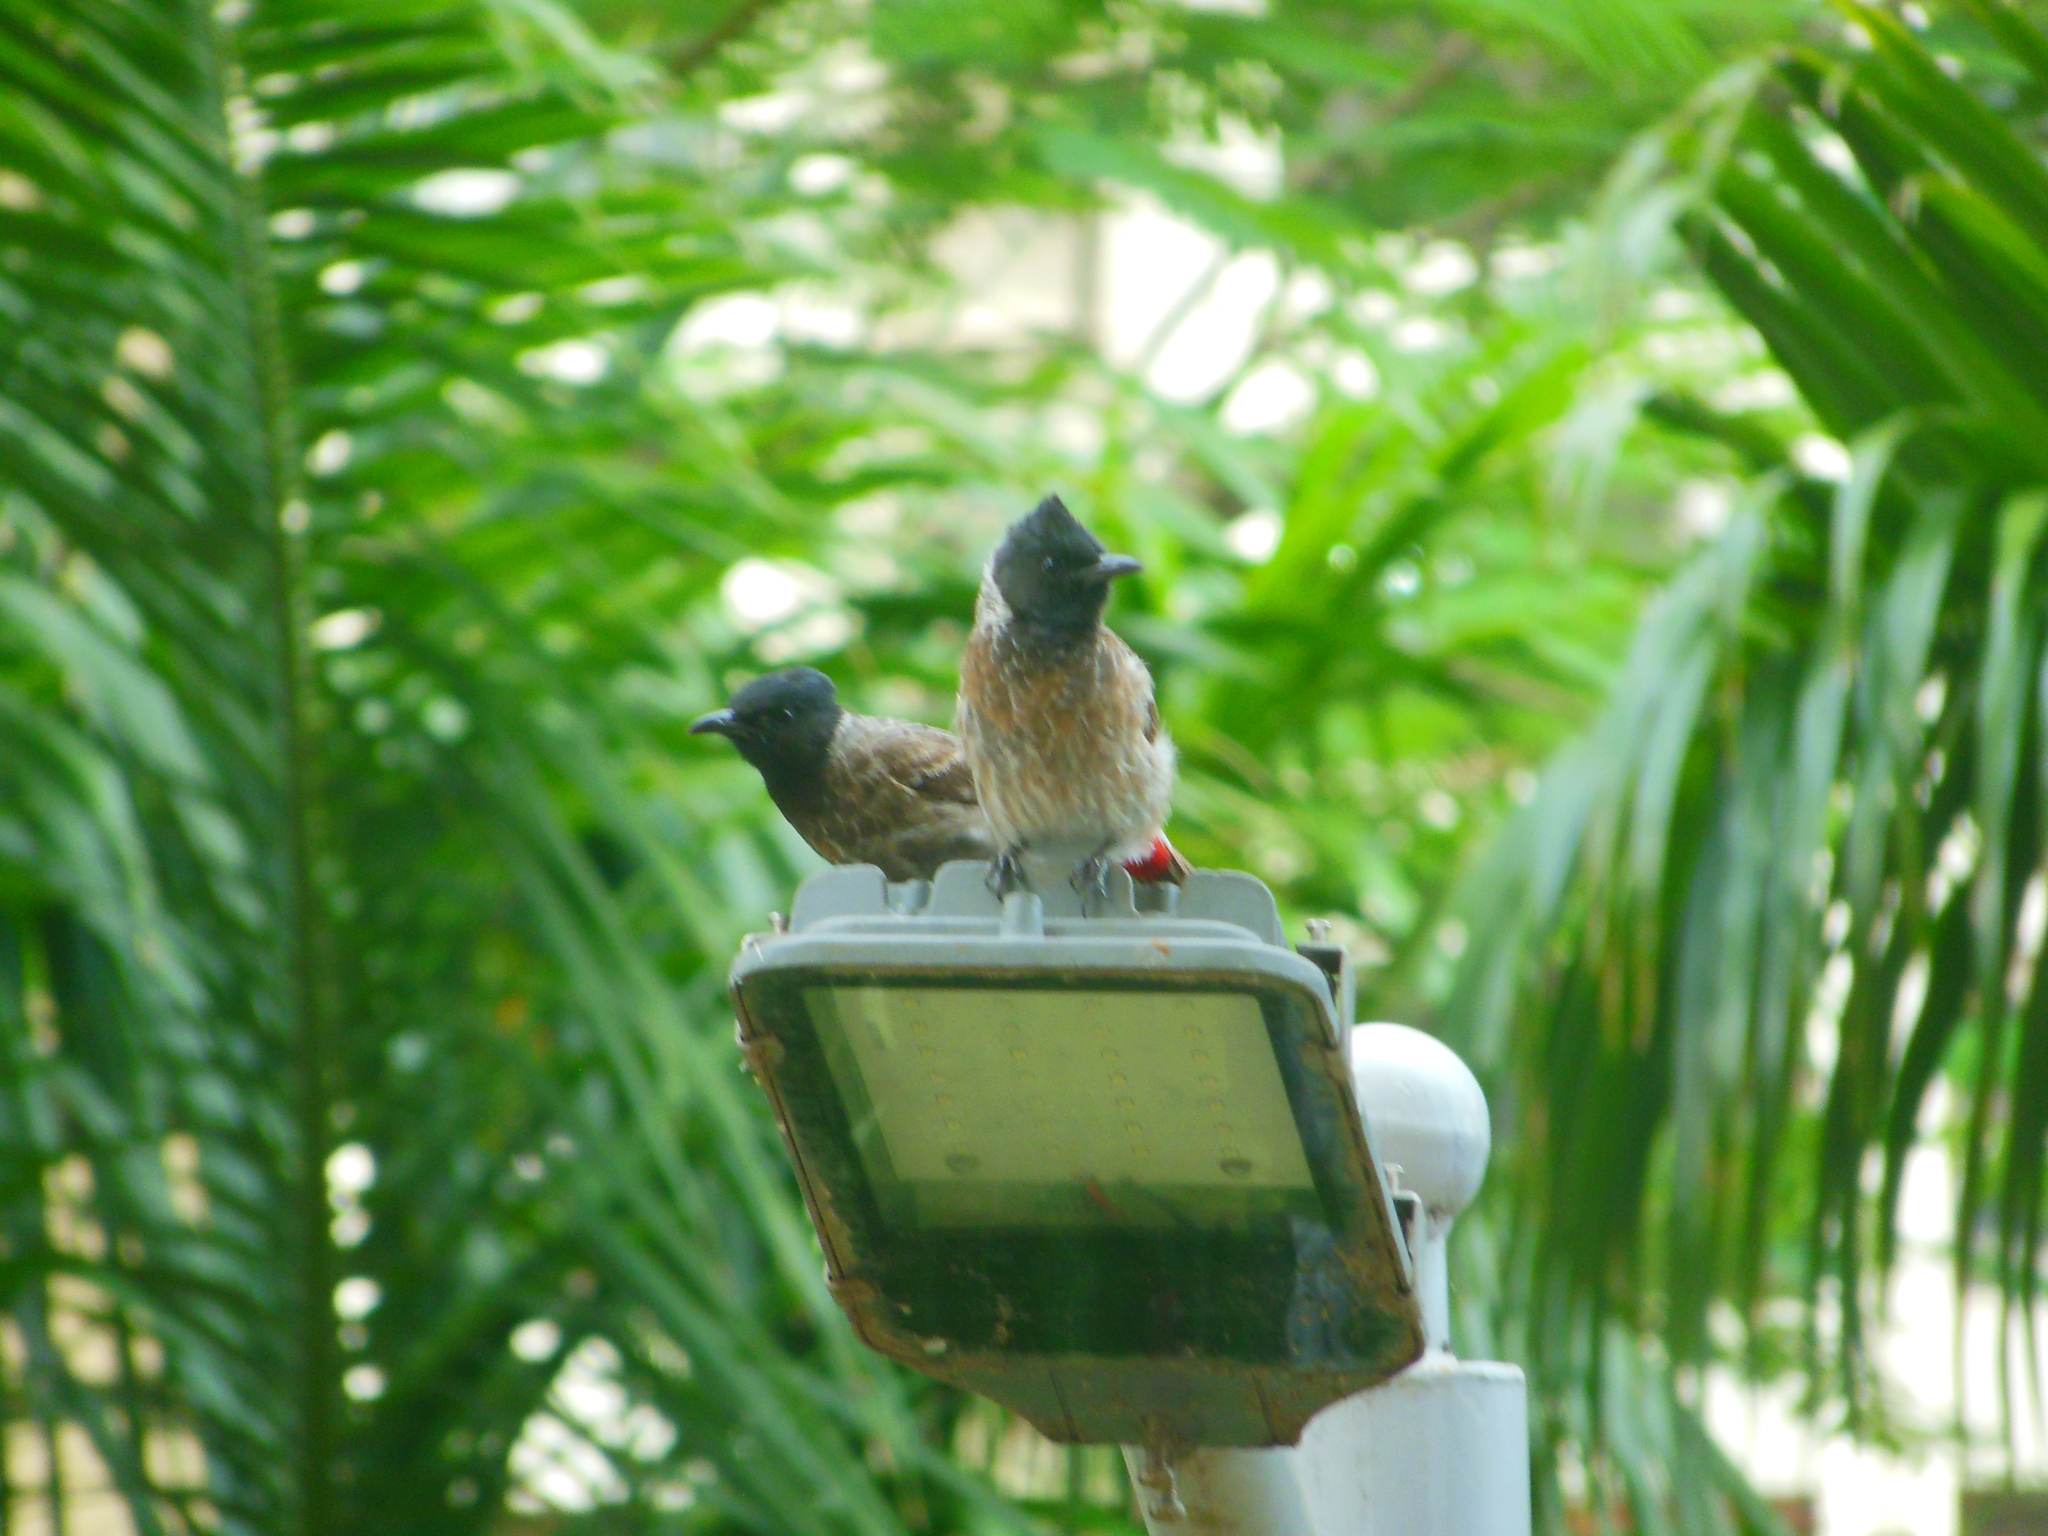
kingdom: Animalia
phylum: Chordata
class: Aves
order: Passeriformes
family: Pycnonotidae
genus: Pycnonotus
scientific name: Pycnonotus cafer
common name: Red-vented bulbul
